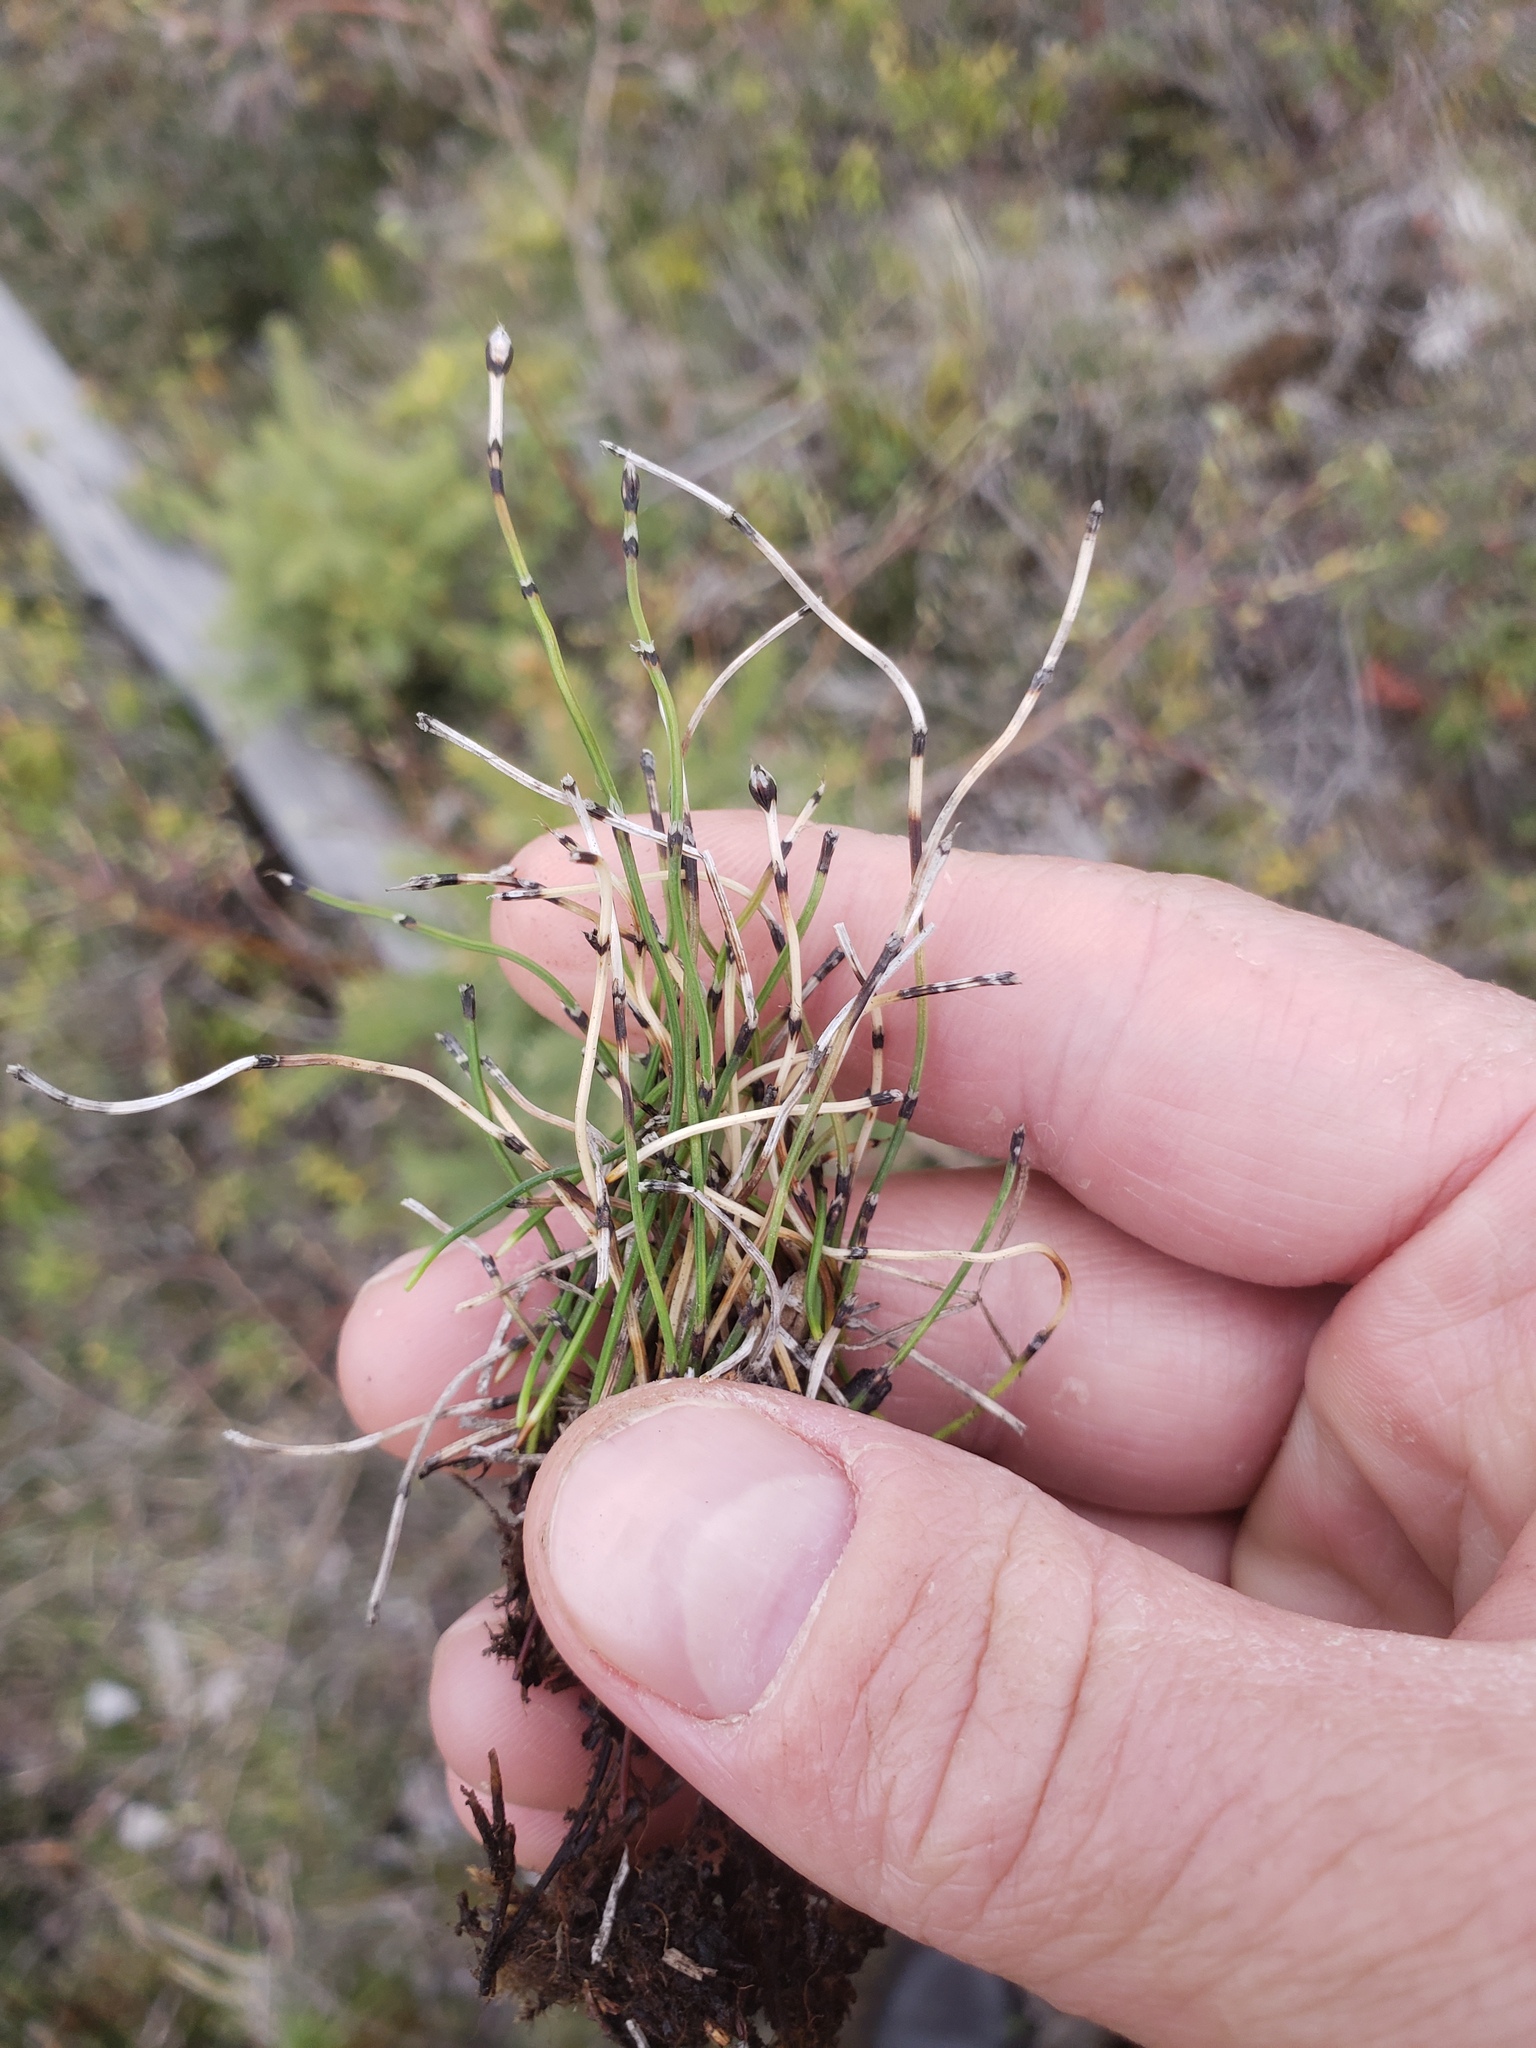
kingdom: Plantae
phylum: Tracheophyta
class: Polypodiopsida
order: Equisetales
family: Equisetaceae
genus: Equisetum
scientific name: Equisetum scirpoides
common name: Delicate horsetail
